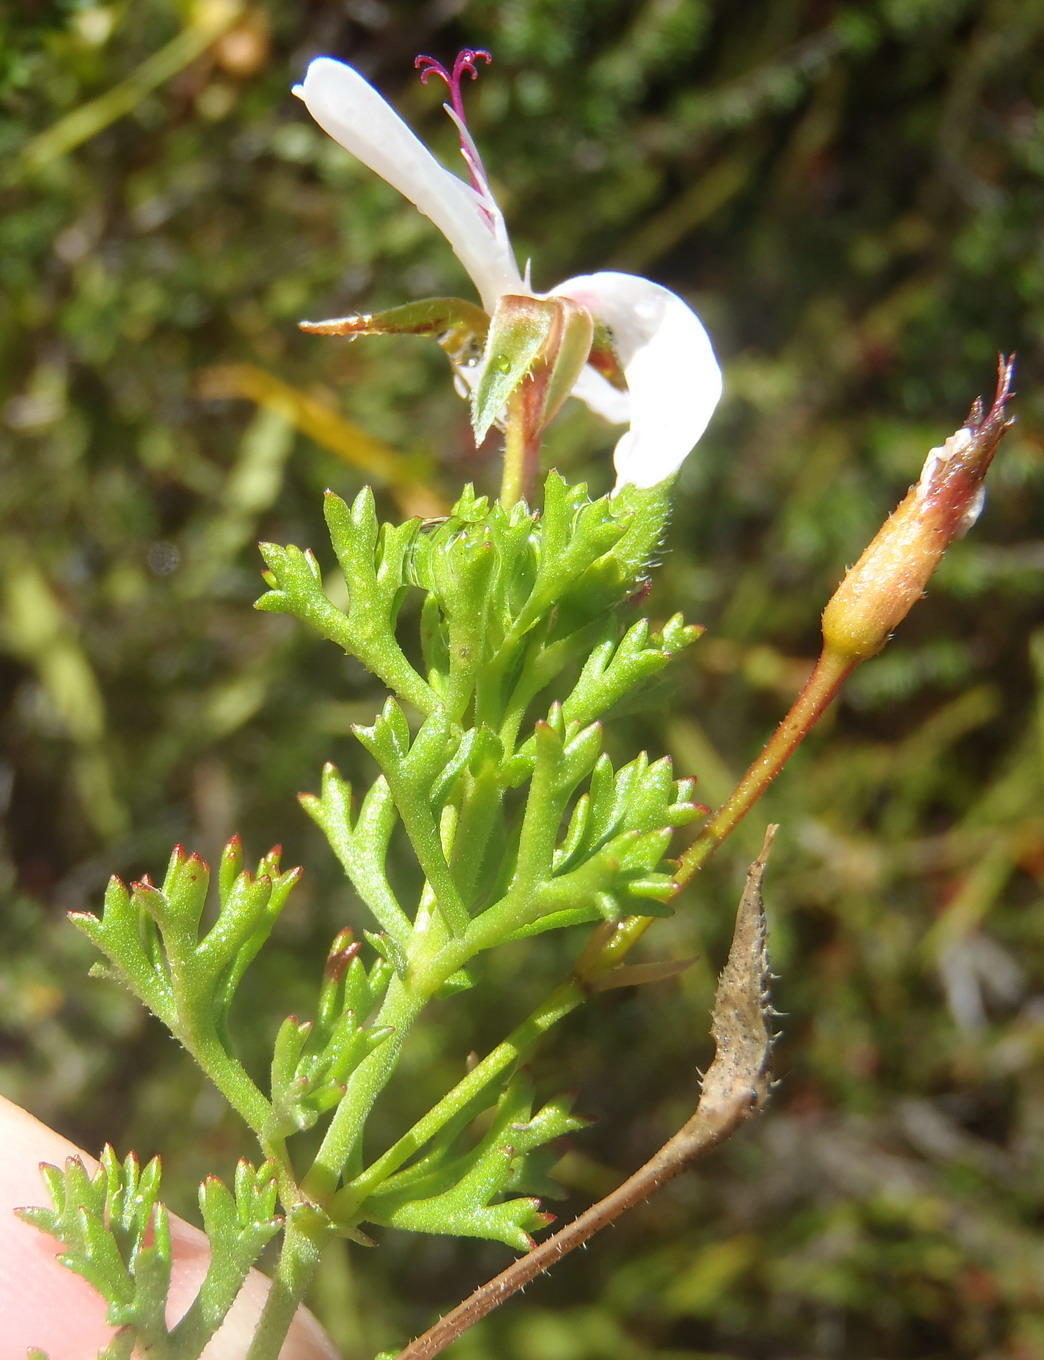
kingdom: Plantae
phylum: Tracheophyta
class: Magnoliopsida
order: Geraniales
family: Geraniaceae
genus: Pelargonium
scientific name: Pelargonium fruticosum
